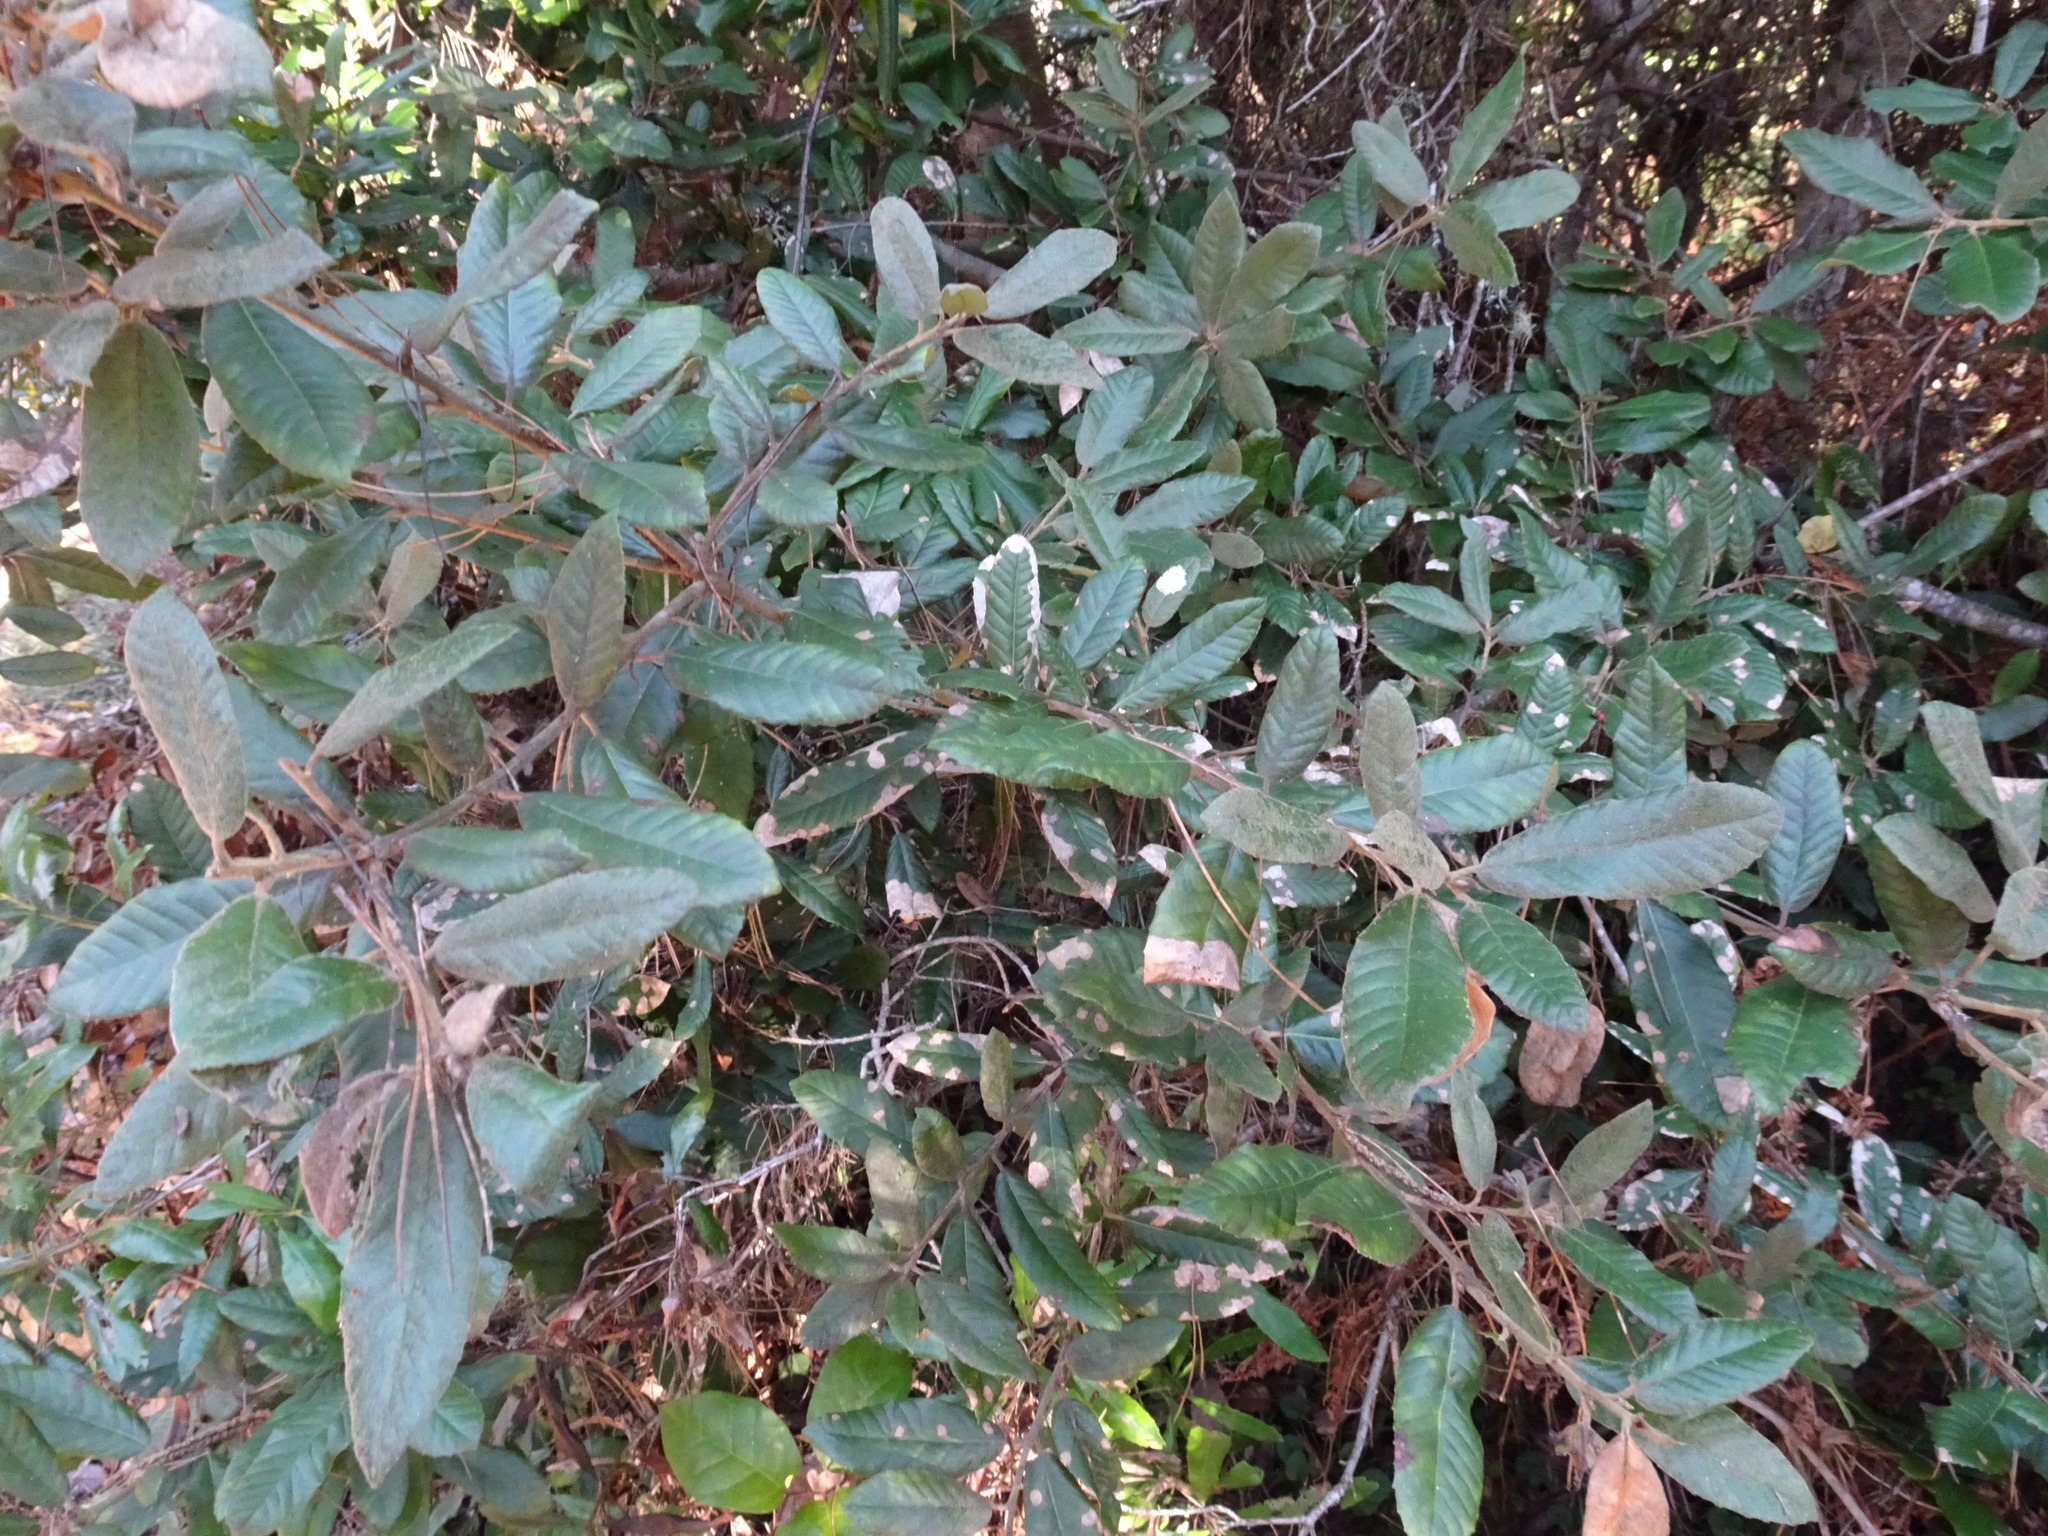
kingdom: Plantae
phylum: Tracheophyta
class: Magnoliopsida
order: Fagales
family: Fagaceae
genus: Notholithocarpus
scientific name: Notholithocarpus densiflorus
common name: Tan bark oak
